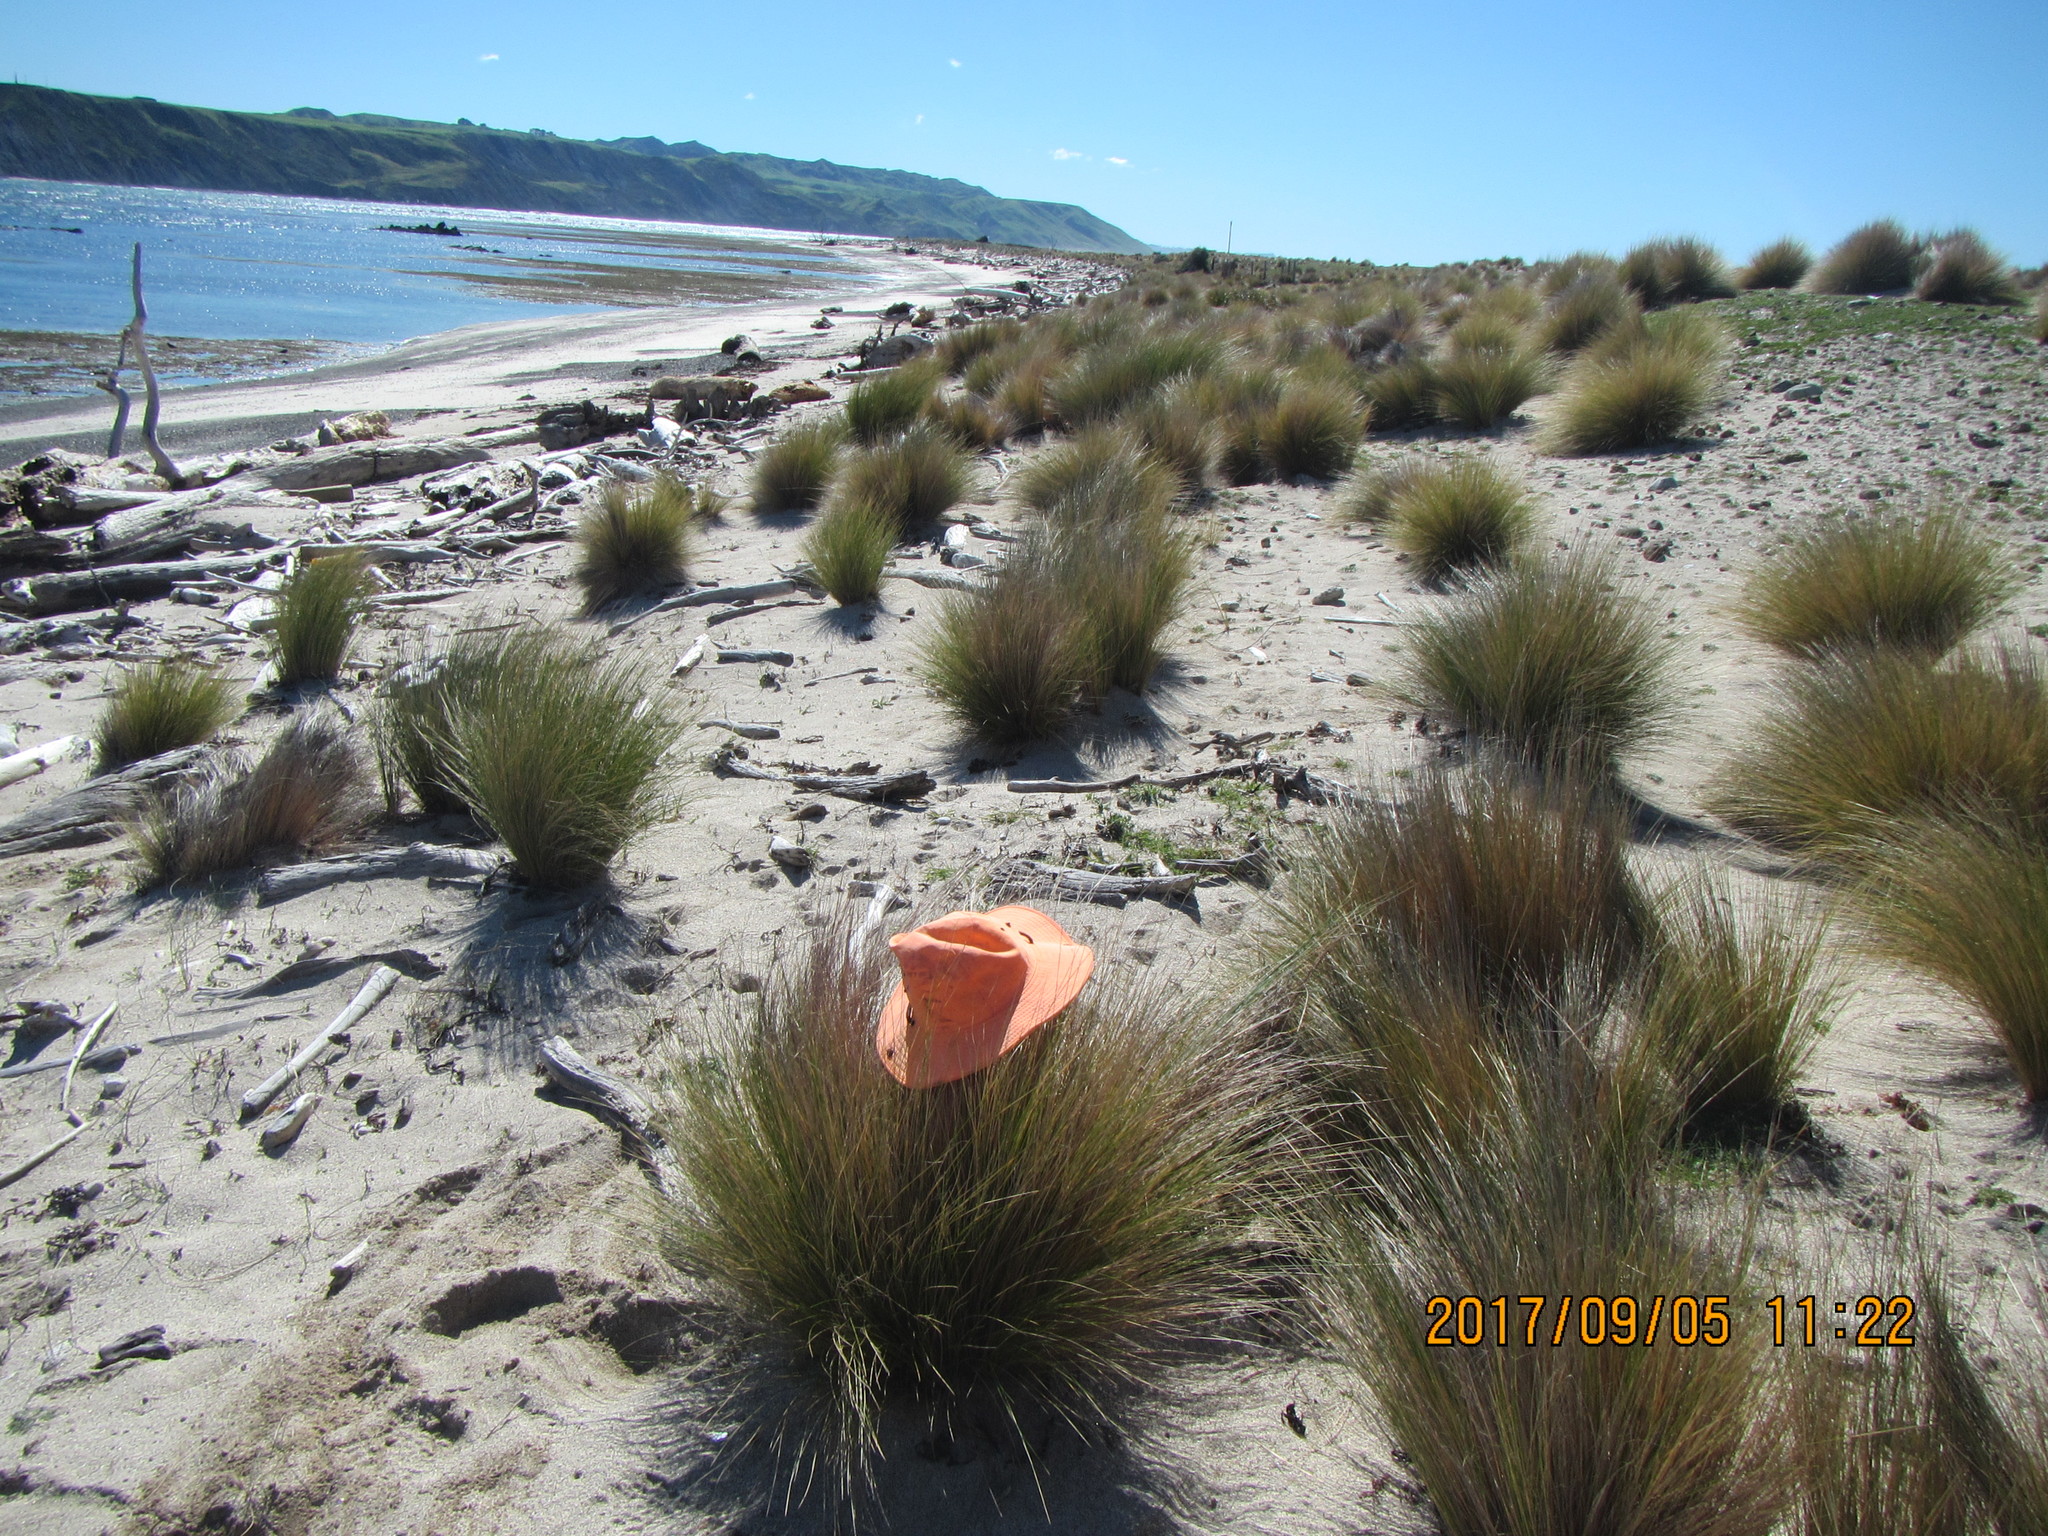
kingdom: Animalia
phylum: Mollusca
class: Gastropoda
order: Stylommatophora
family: Helicidae
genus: Cornu
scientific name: Cornu aspersum
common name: Brown garden snail
